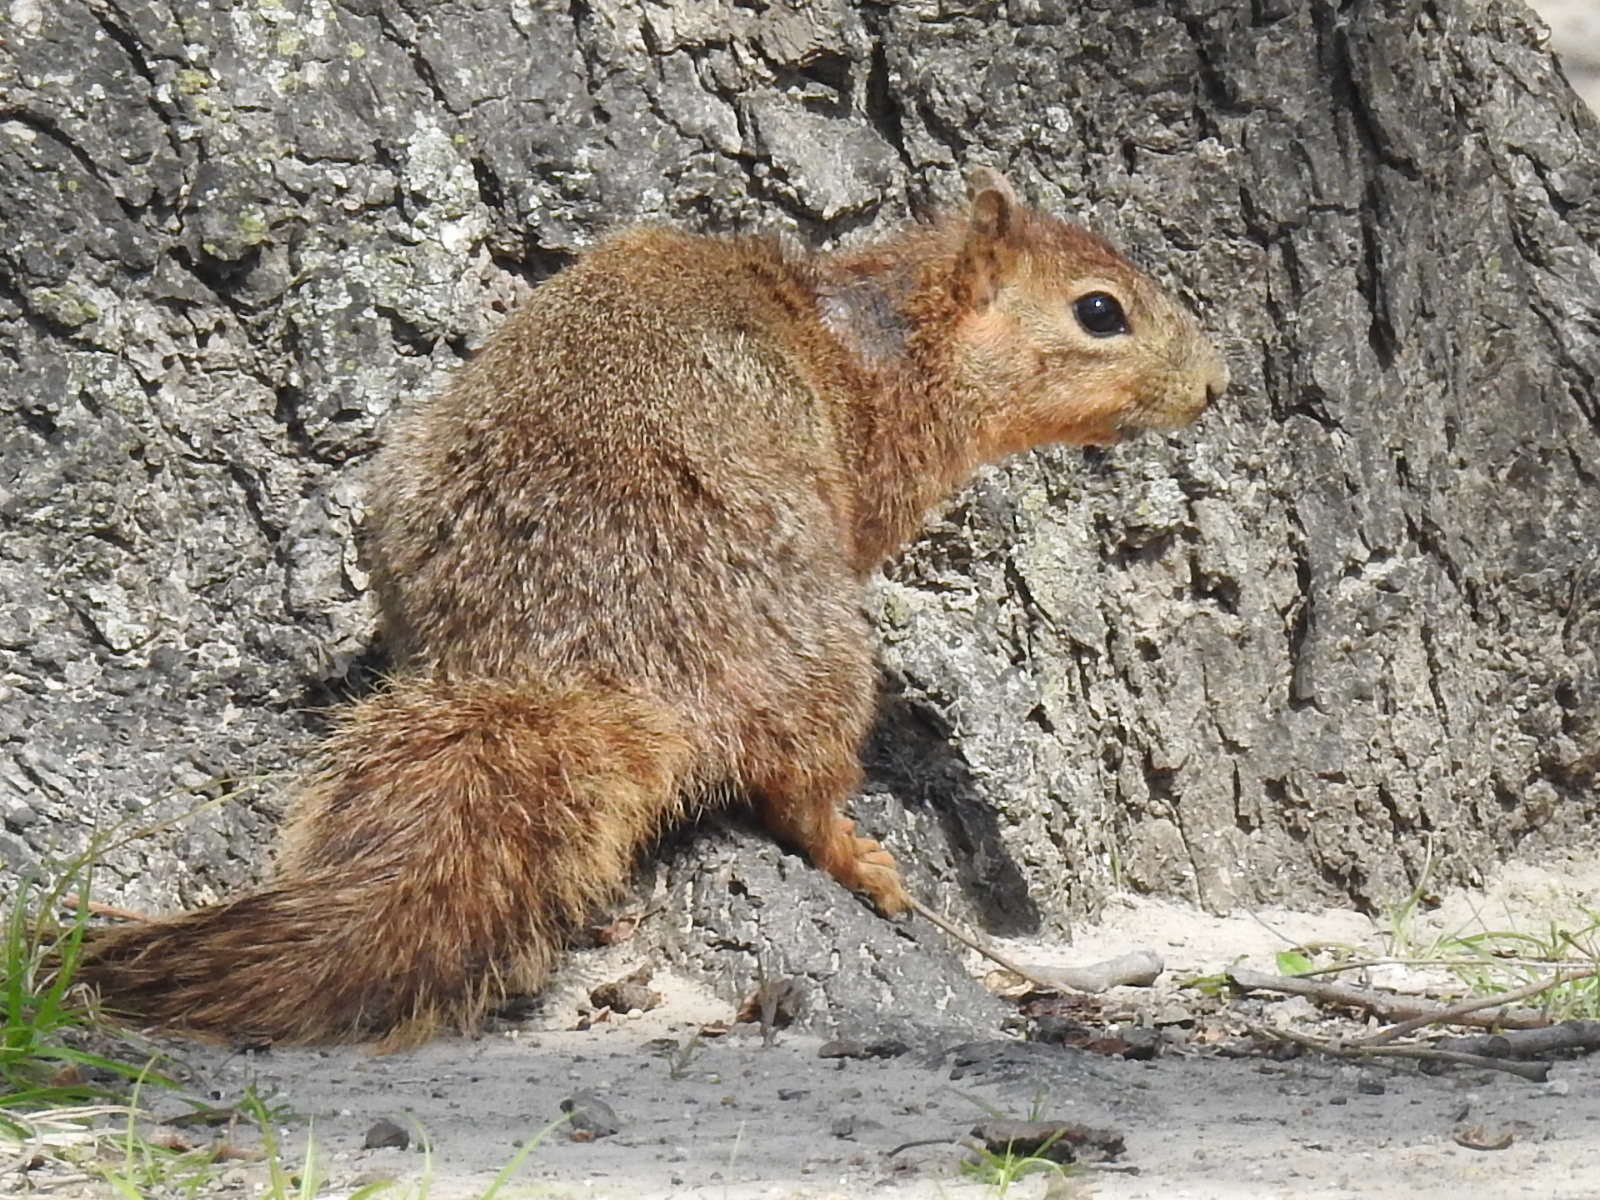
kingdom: Animalia
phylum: Chordata
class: Mammalia
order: Rodentia
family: Sciuridae
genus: Sciurus
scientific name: Sciurus niger
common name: Fox squirrel
